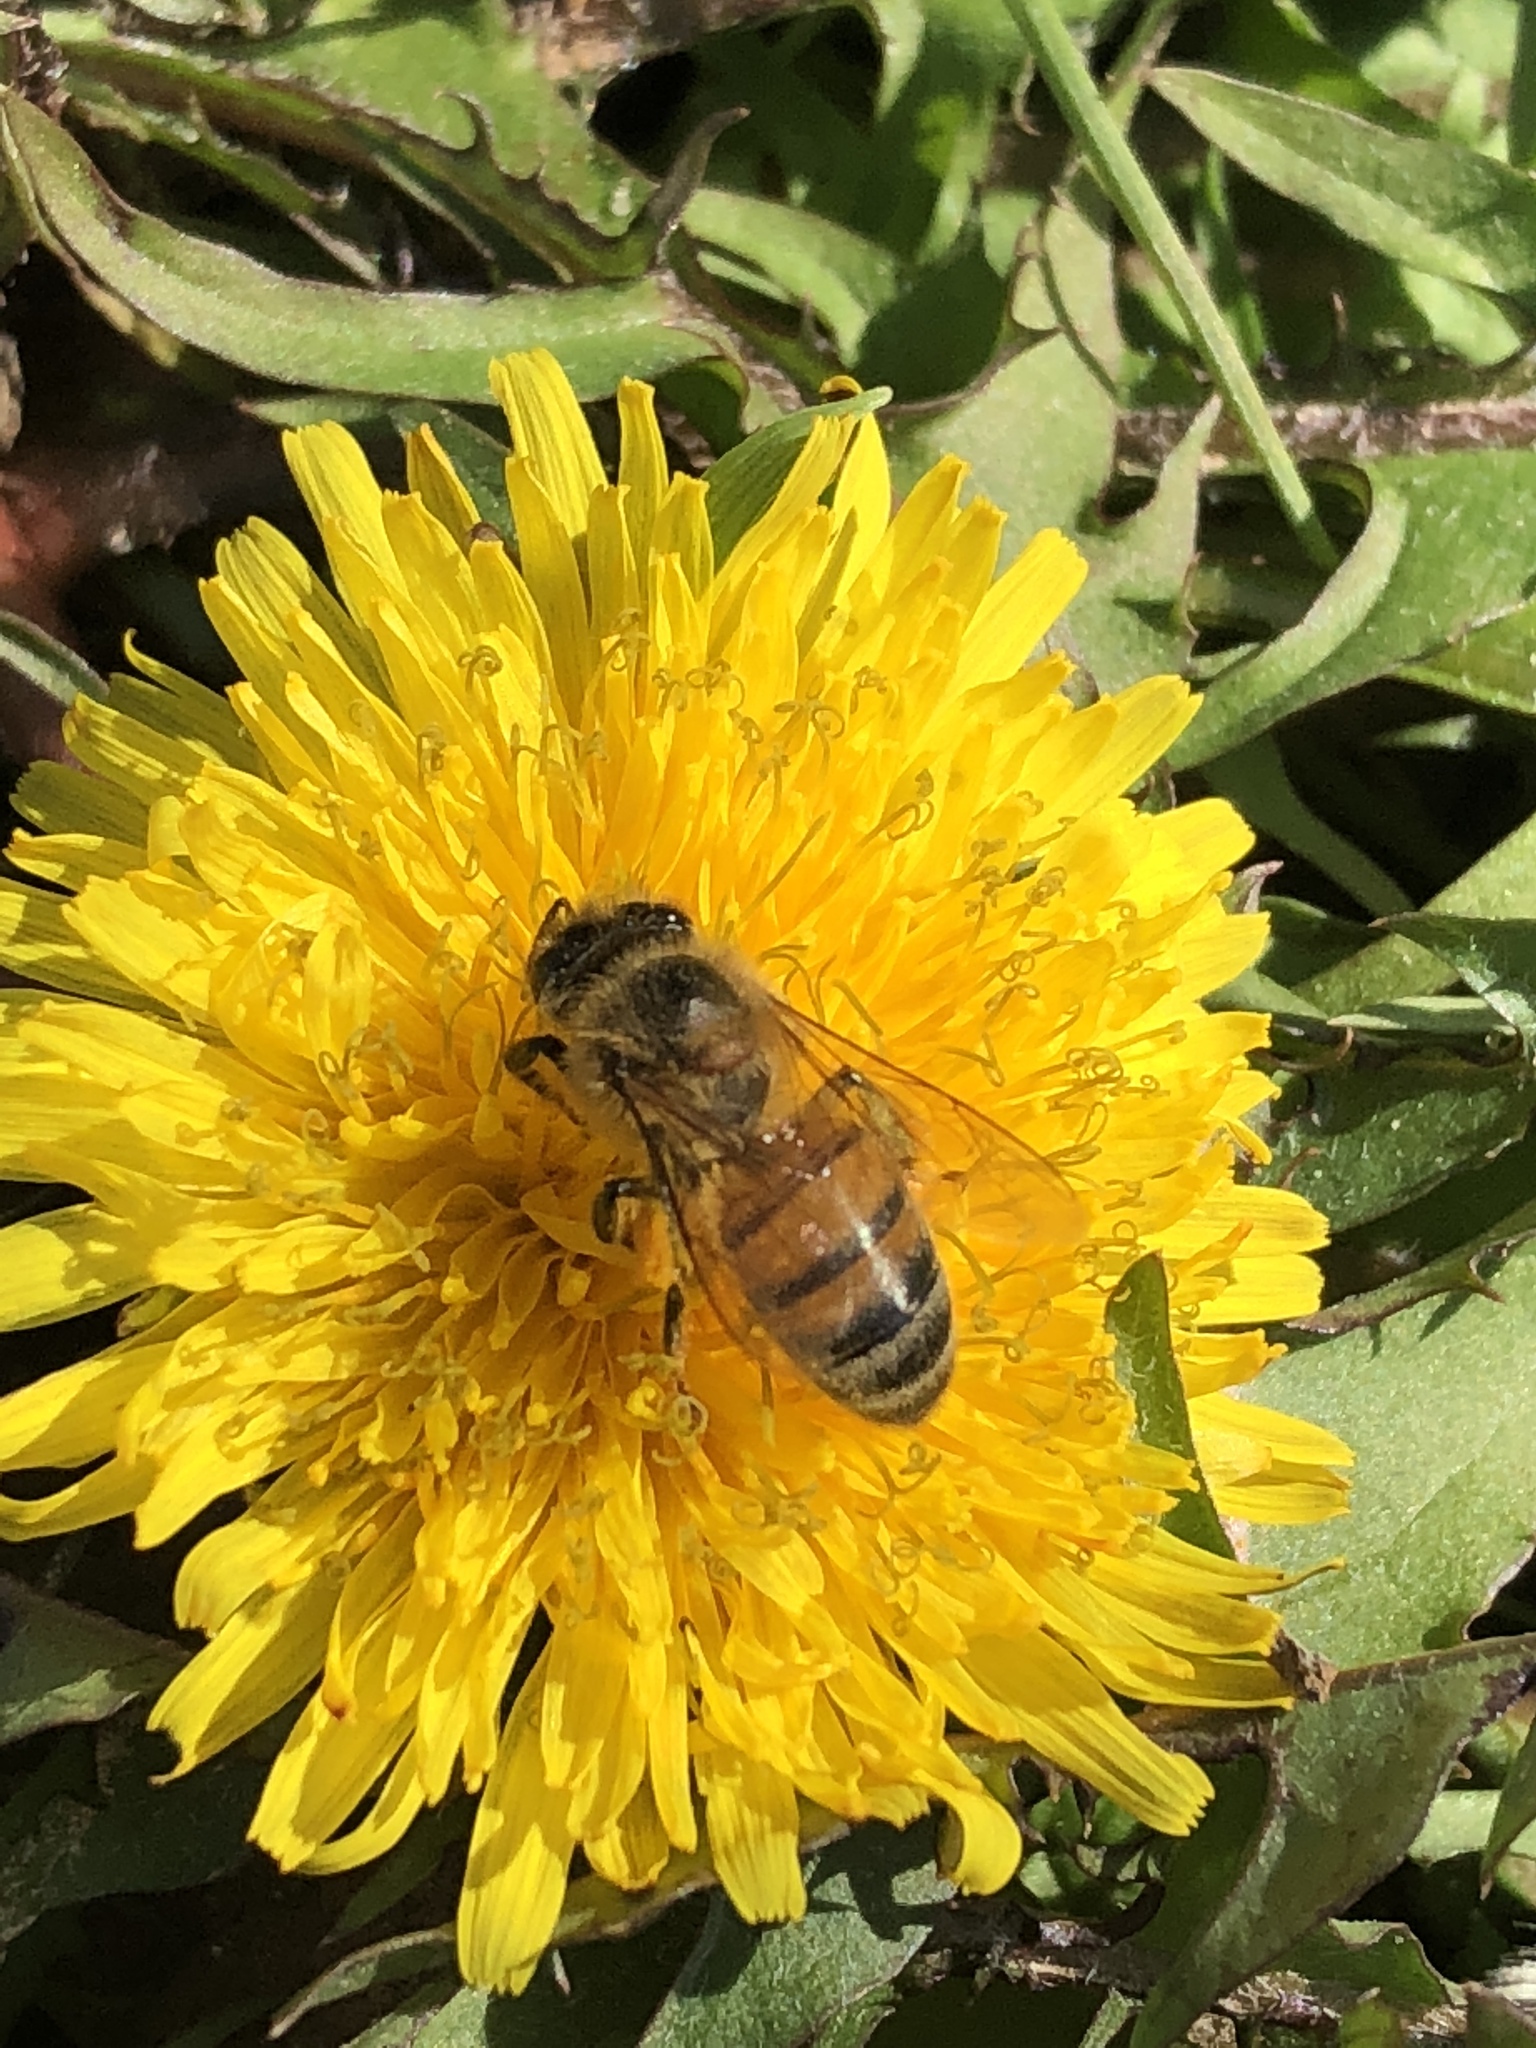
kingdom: Animalia
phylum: Arthropoda
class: Insecta
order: Hymenoptera
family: Apidae
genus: Apis
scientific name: Apis mellifera
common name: Honey bee
